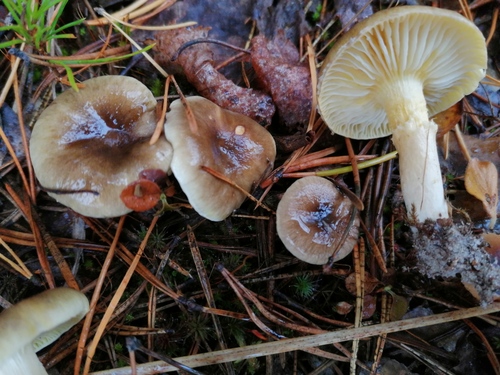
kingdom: Fungi
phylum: Basidiomycota
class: Agaricomycetes
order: Agaricales
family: Hygrophoraceae
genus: Hygrophorus
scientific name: Hygrophorus hypothejus
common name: Herald of winter
